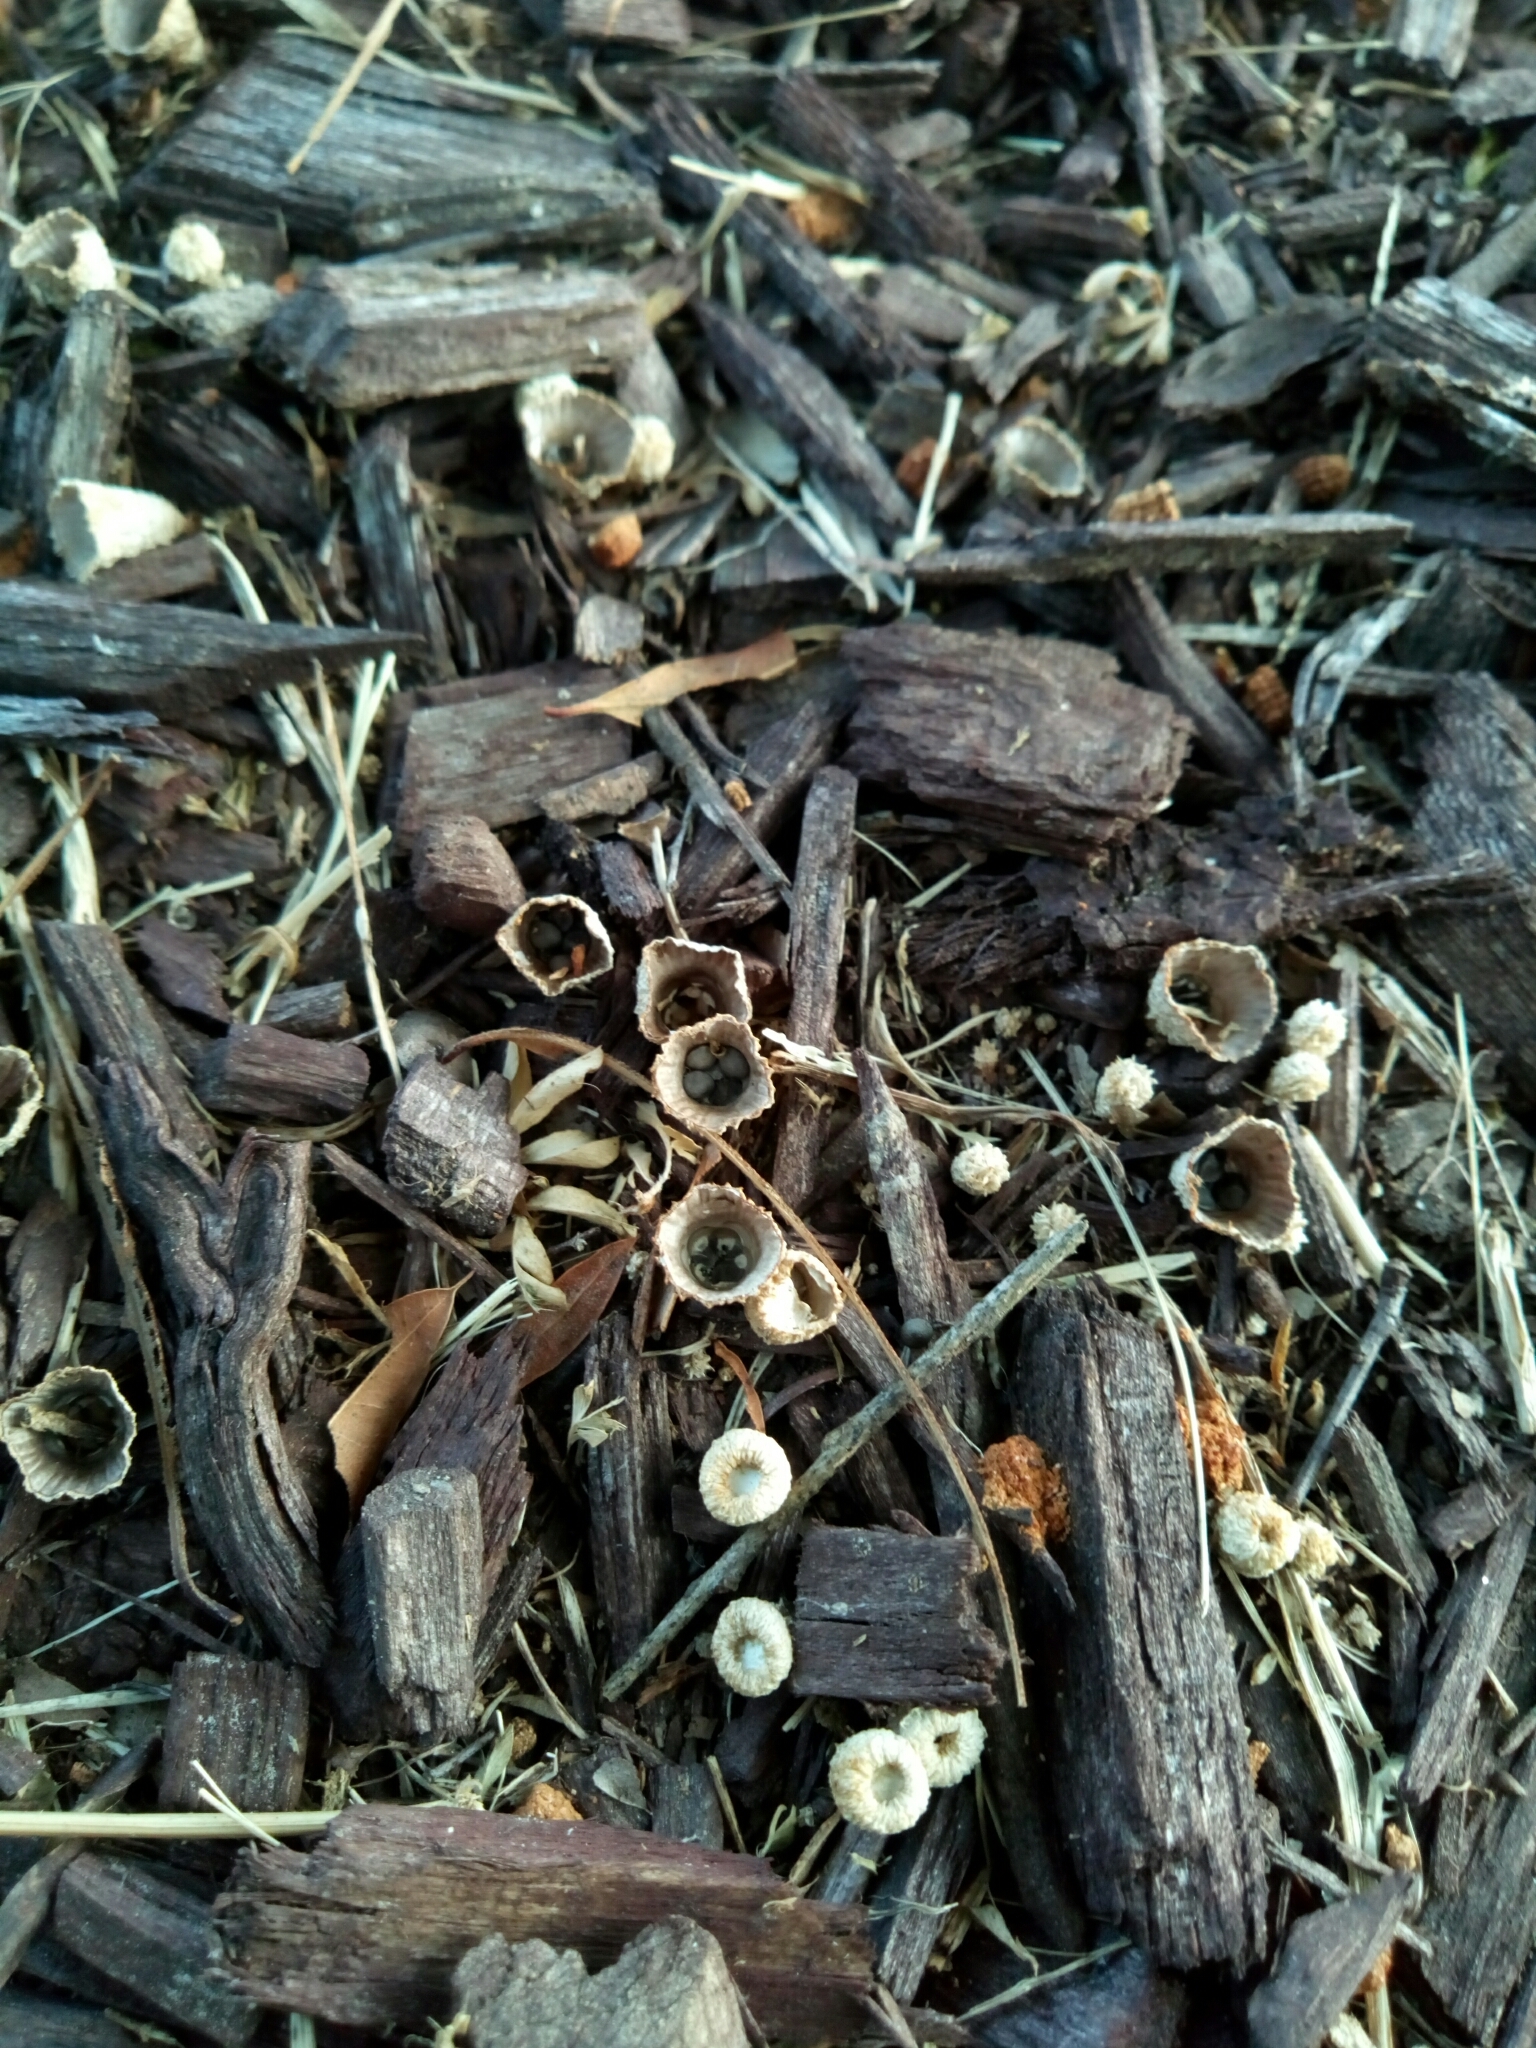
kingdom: Fungi
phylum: Basidiomycota
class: Agaricomycetes
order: Agaricales
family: Agaricaceae
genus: Cyathus
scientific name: Cyathus striatus
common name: Fluted bird's nest
